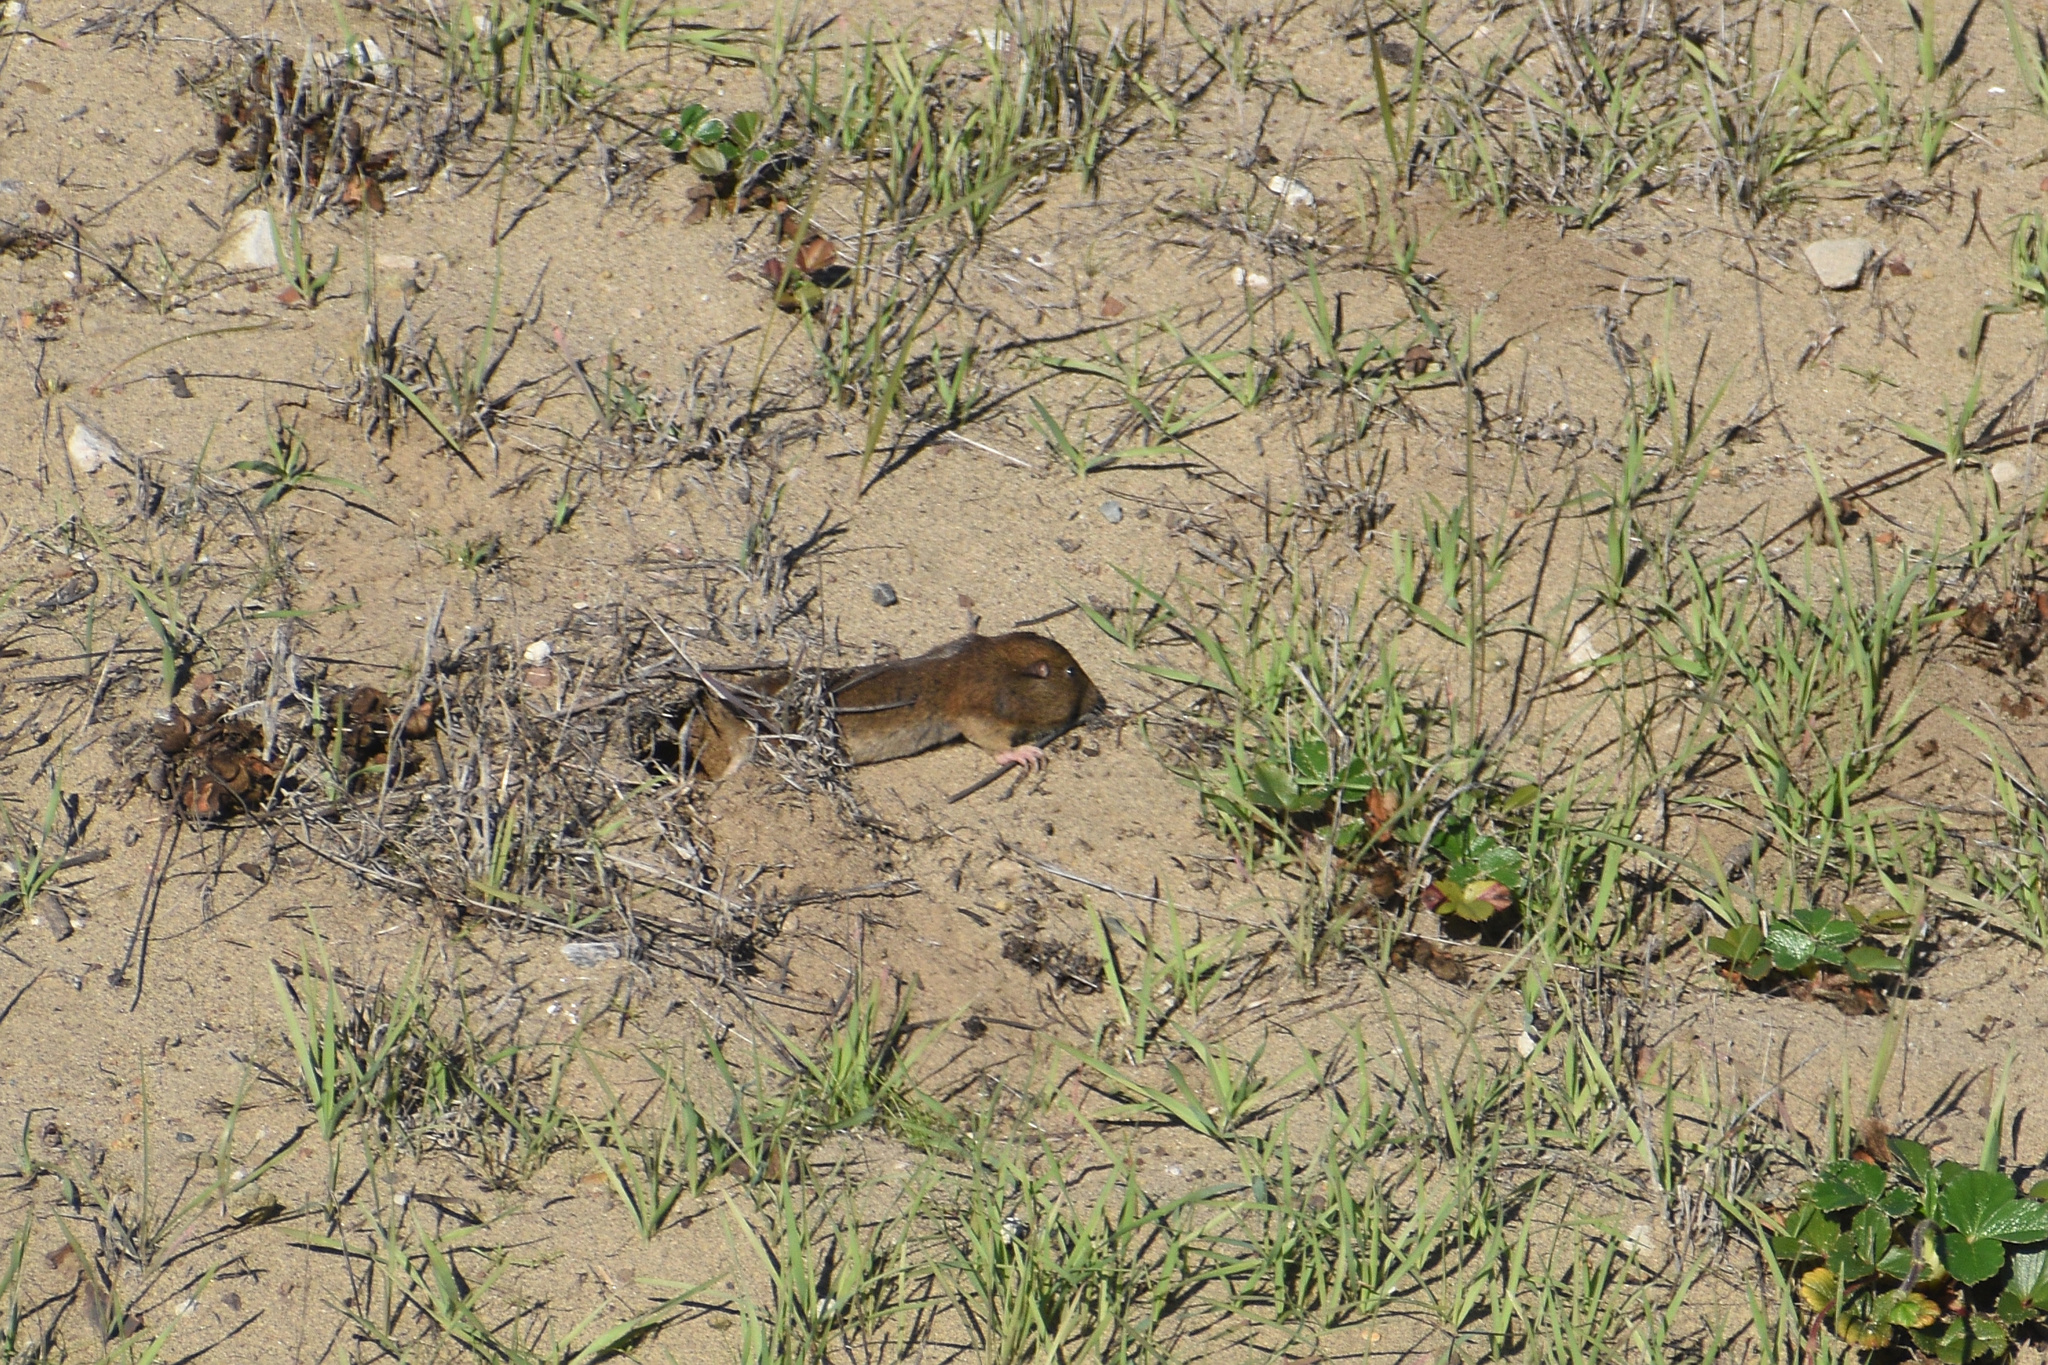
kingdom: Animalia
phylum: Chordata
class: Mammalia
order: Rodentia
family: Geomyidae
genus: Thomomys
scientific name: Thomomys bottae
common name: Botta's pocket gopher
